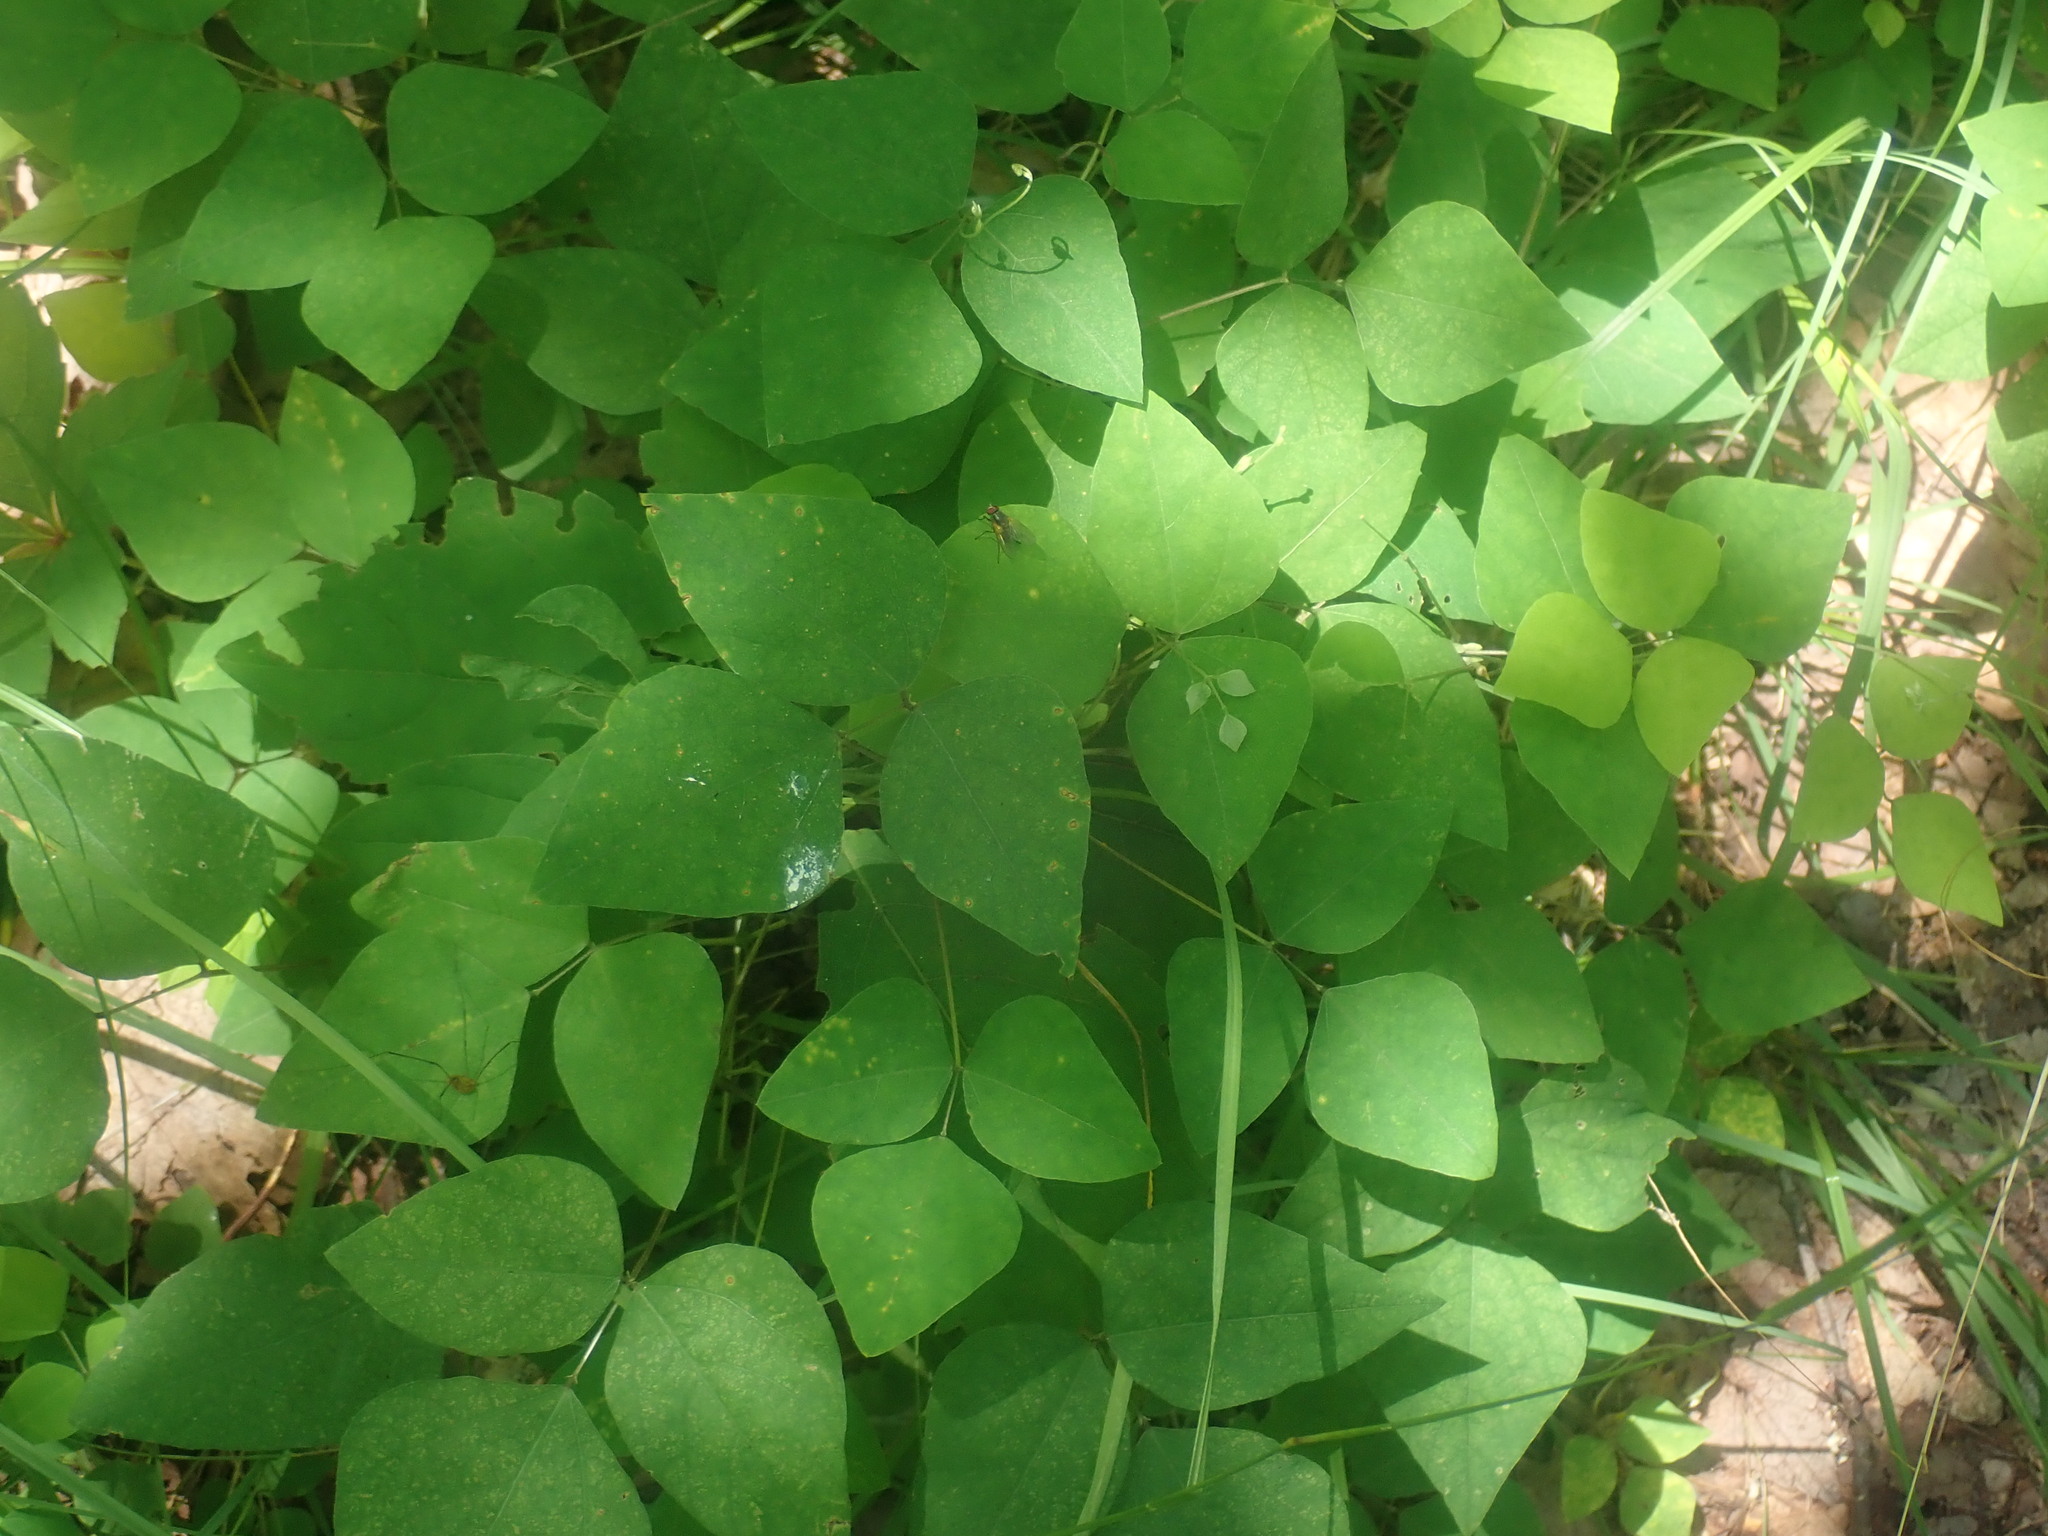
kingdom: Plantae
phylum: Tracheophyta
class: Magnoliopsida
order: Fabales
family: Fabaceae
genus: Amphicarpaea
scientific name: Amphicarpaea bracteata
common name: American hog peanut
